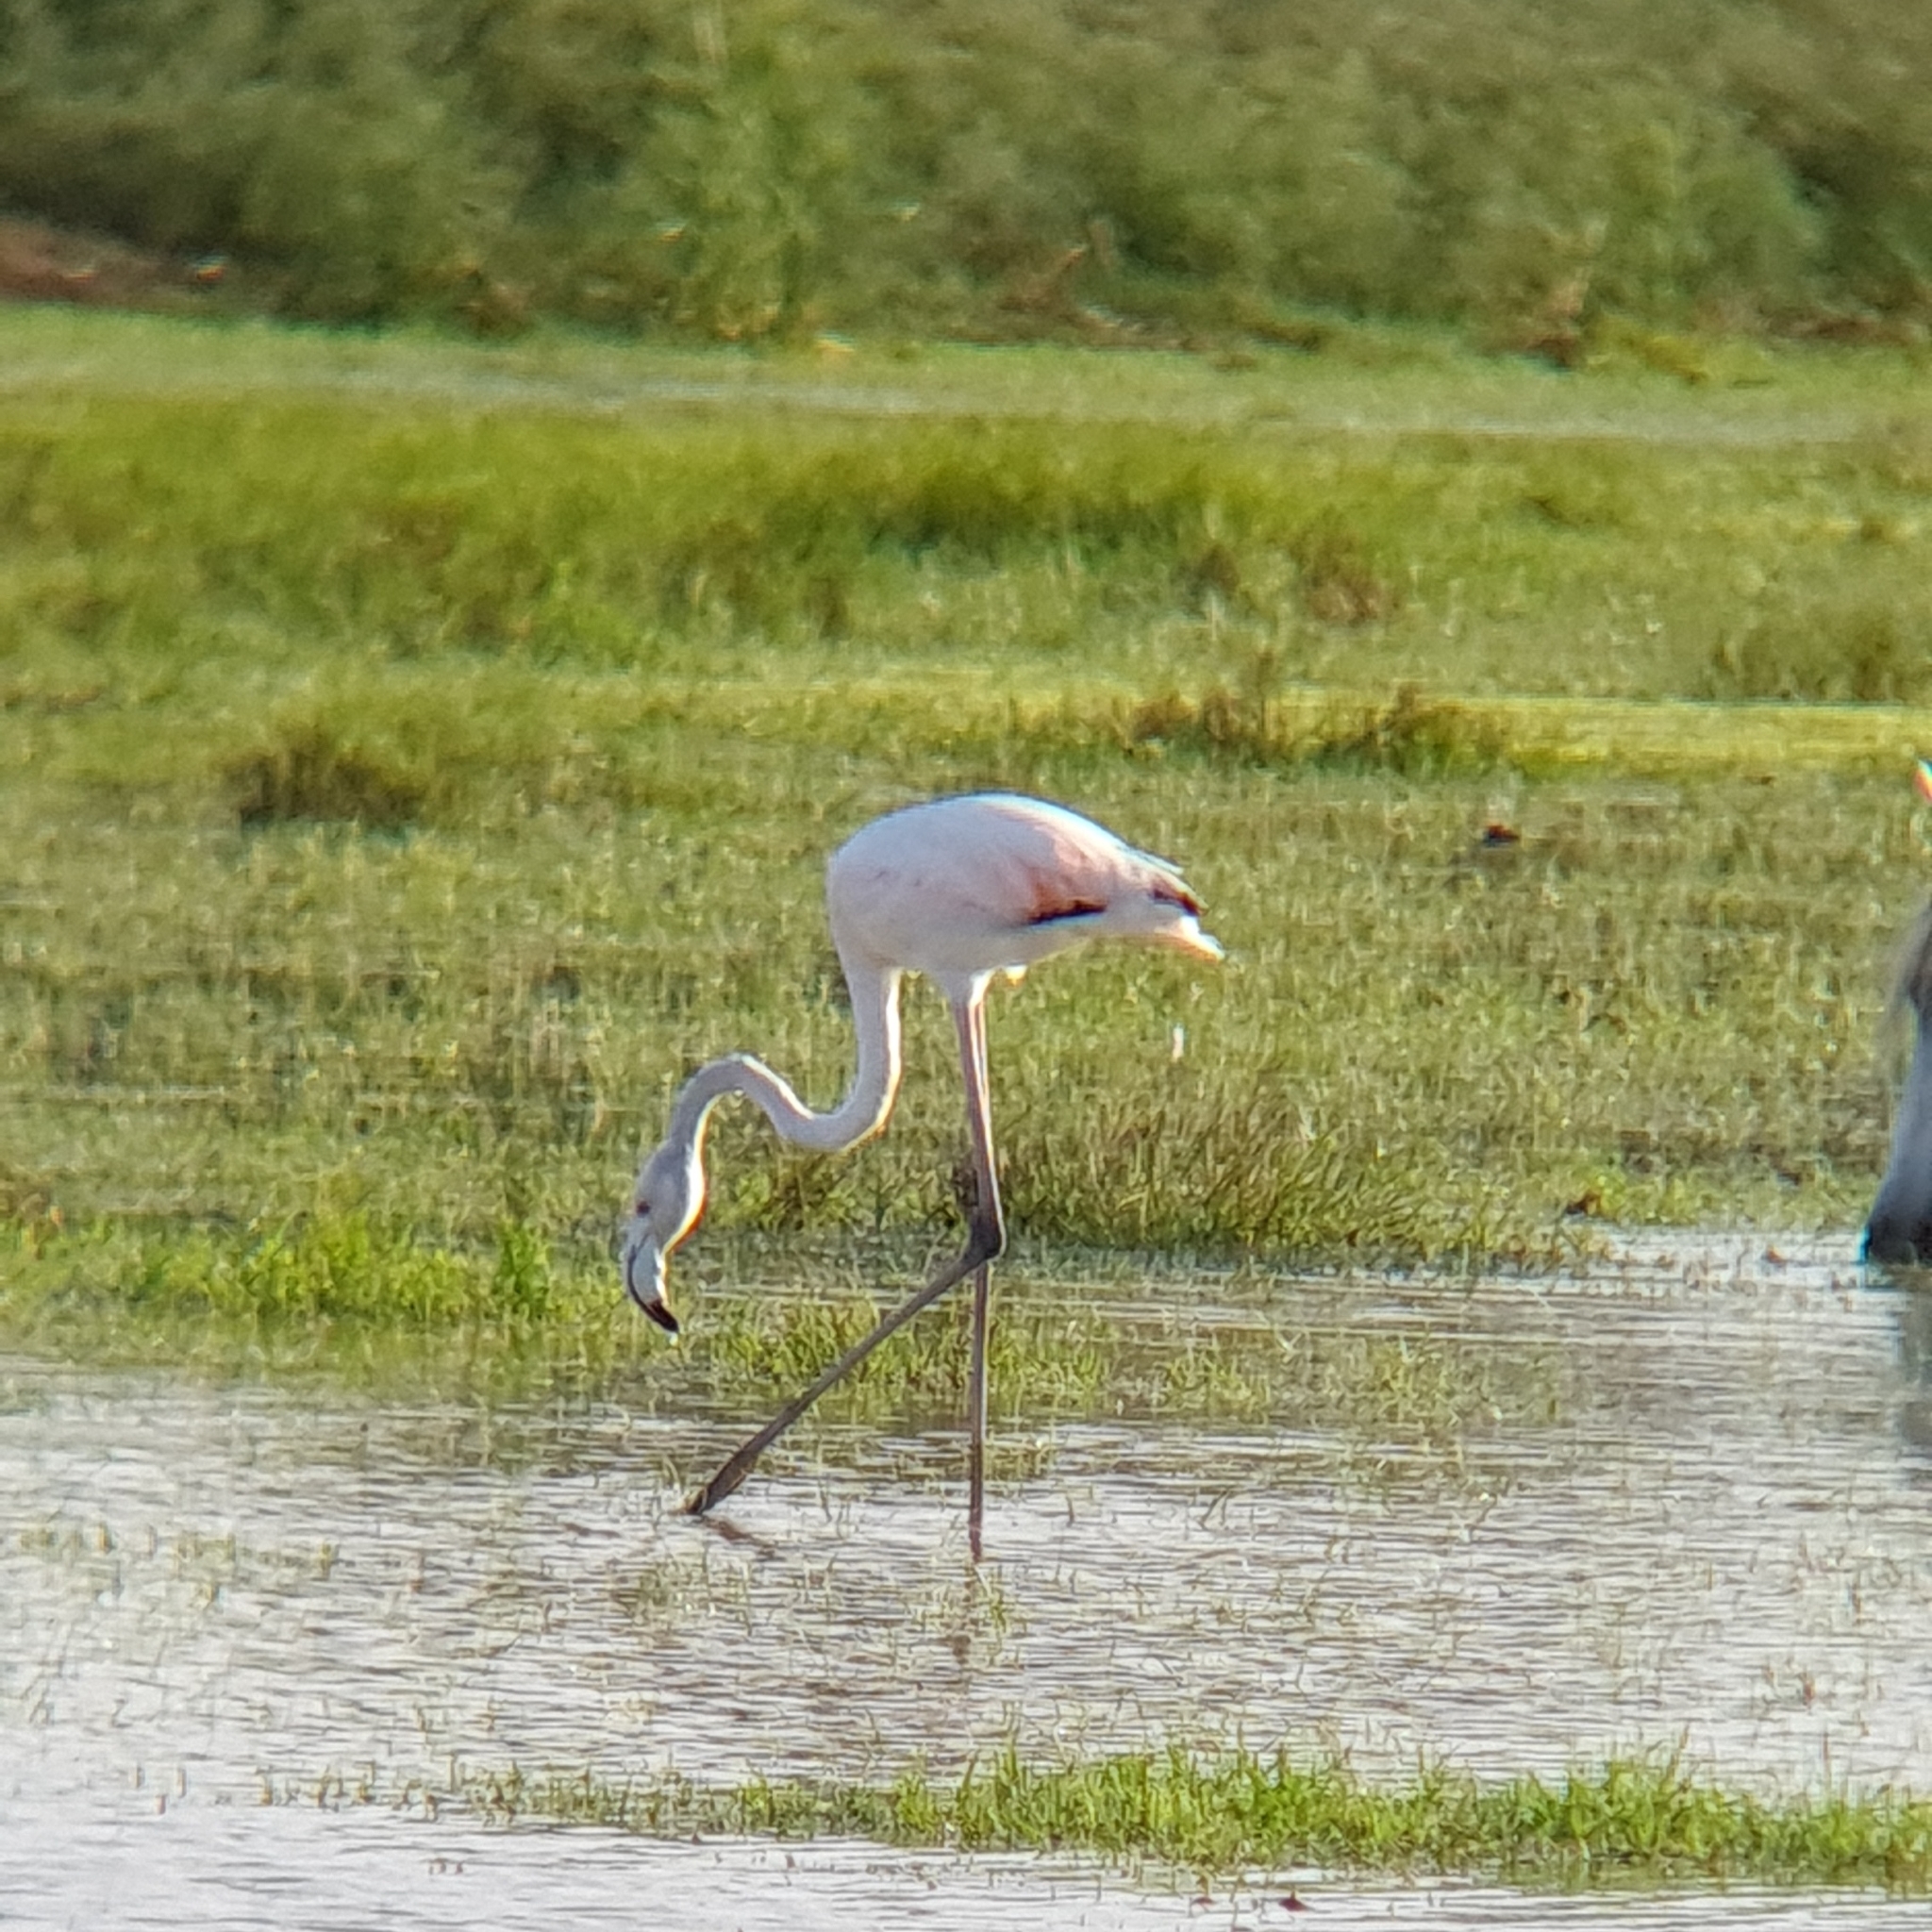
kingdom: Animalia
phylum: Chordata
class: Aves
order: Phoenicopteriformes
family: Phoenicopteridae
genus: Phoenicopterus
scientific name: Phoenicopterus roseus
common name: Greater flamingo
